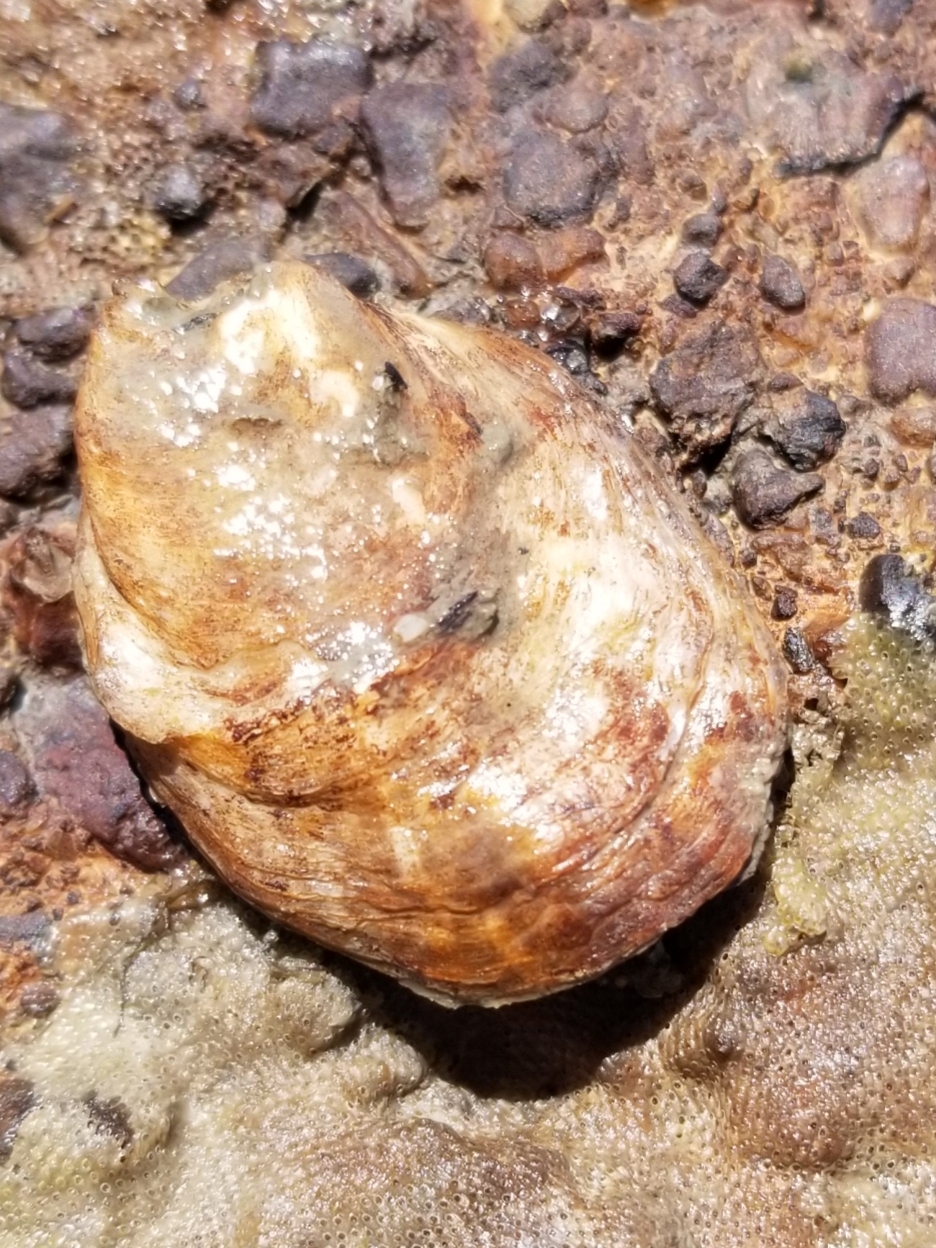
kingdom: Animalia
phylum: Mollusca
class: Bivalvia
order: Ostreida
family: Ostreidae
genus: Ostrea
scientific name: Ostrea lurida
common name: Olympia flat oyster
